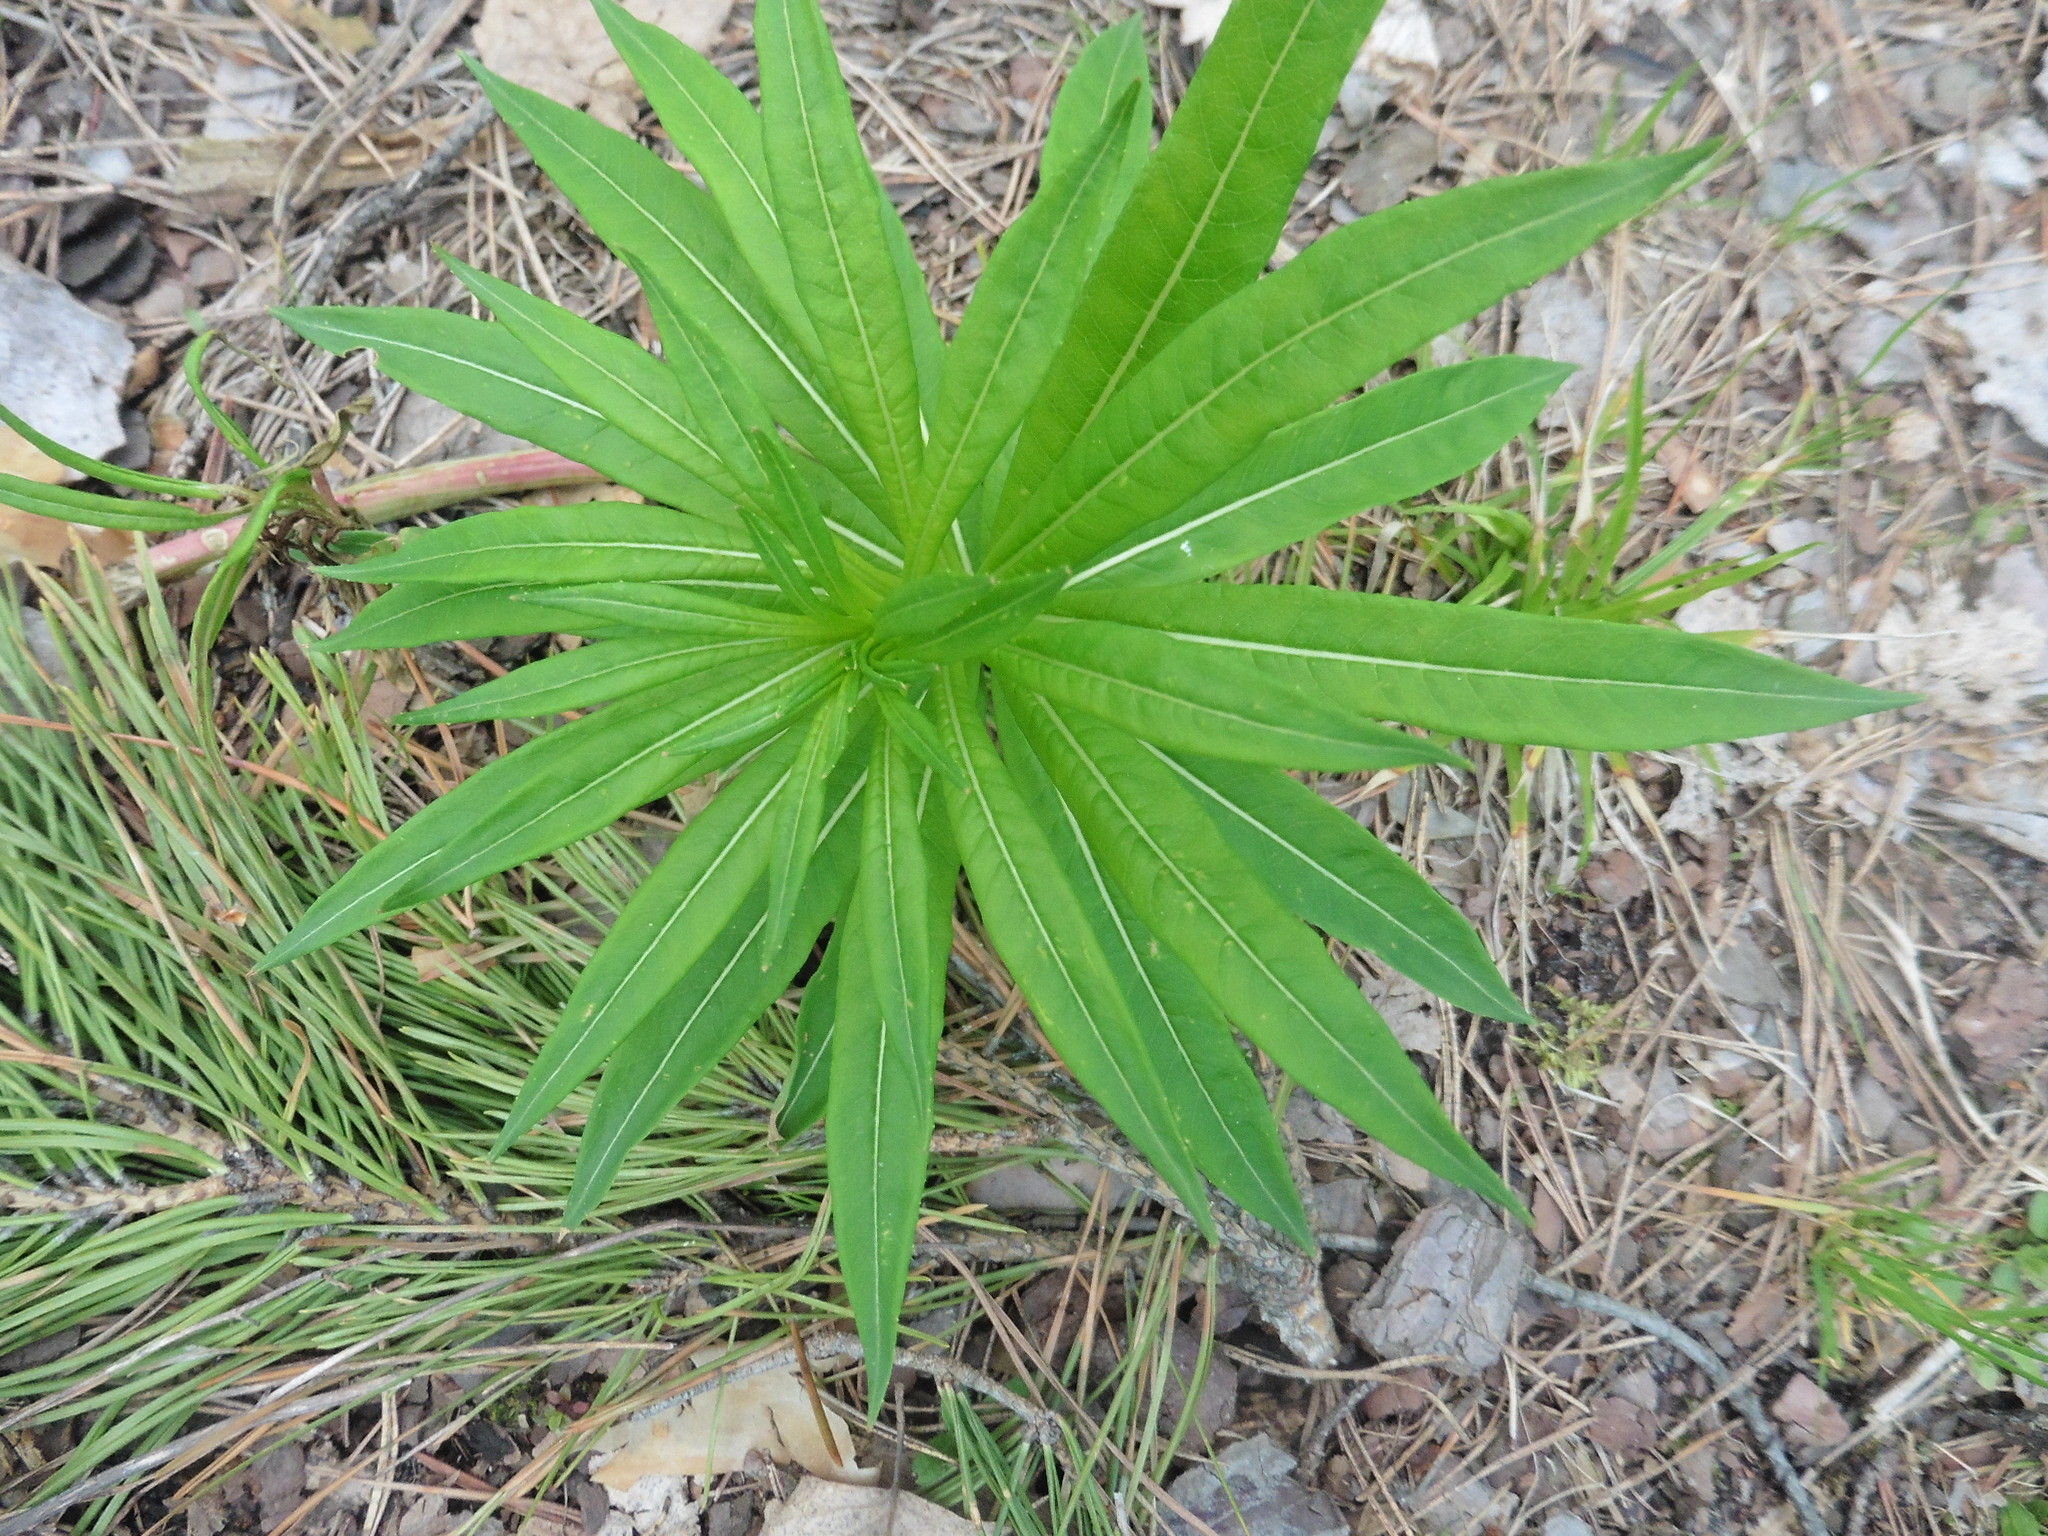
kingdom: Plantae
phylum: Tracheophyta
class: Magnoliopsida
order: Myrtales
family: Onagraceae
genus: Chamaenerion
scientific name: Chamaenerion angustifolium
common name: Fireweed
